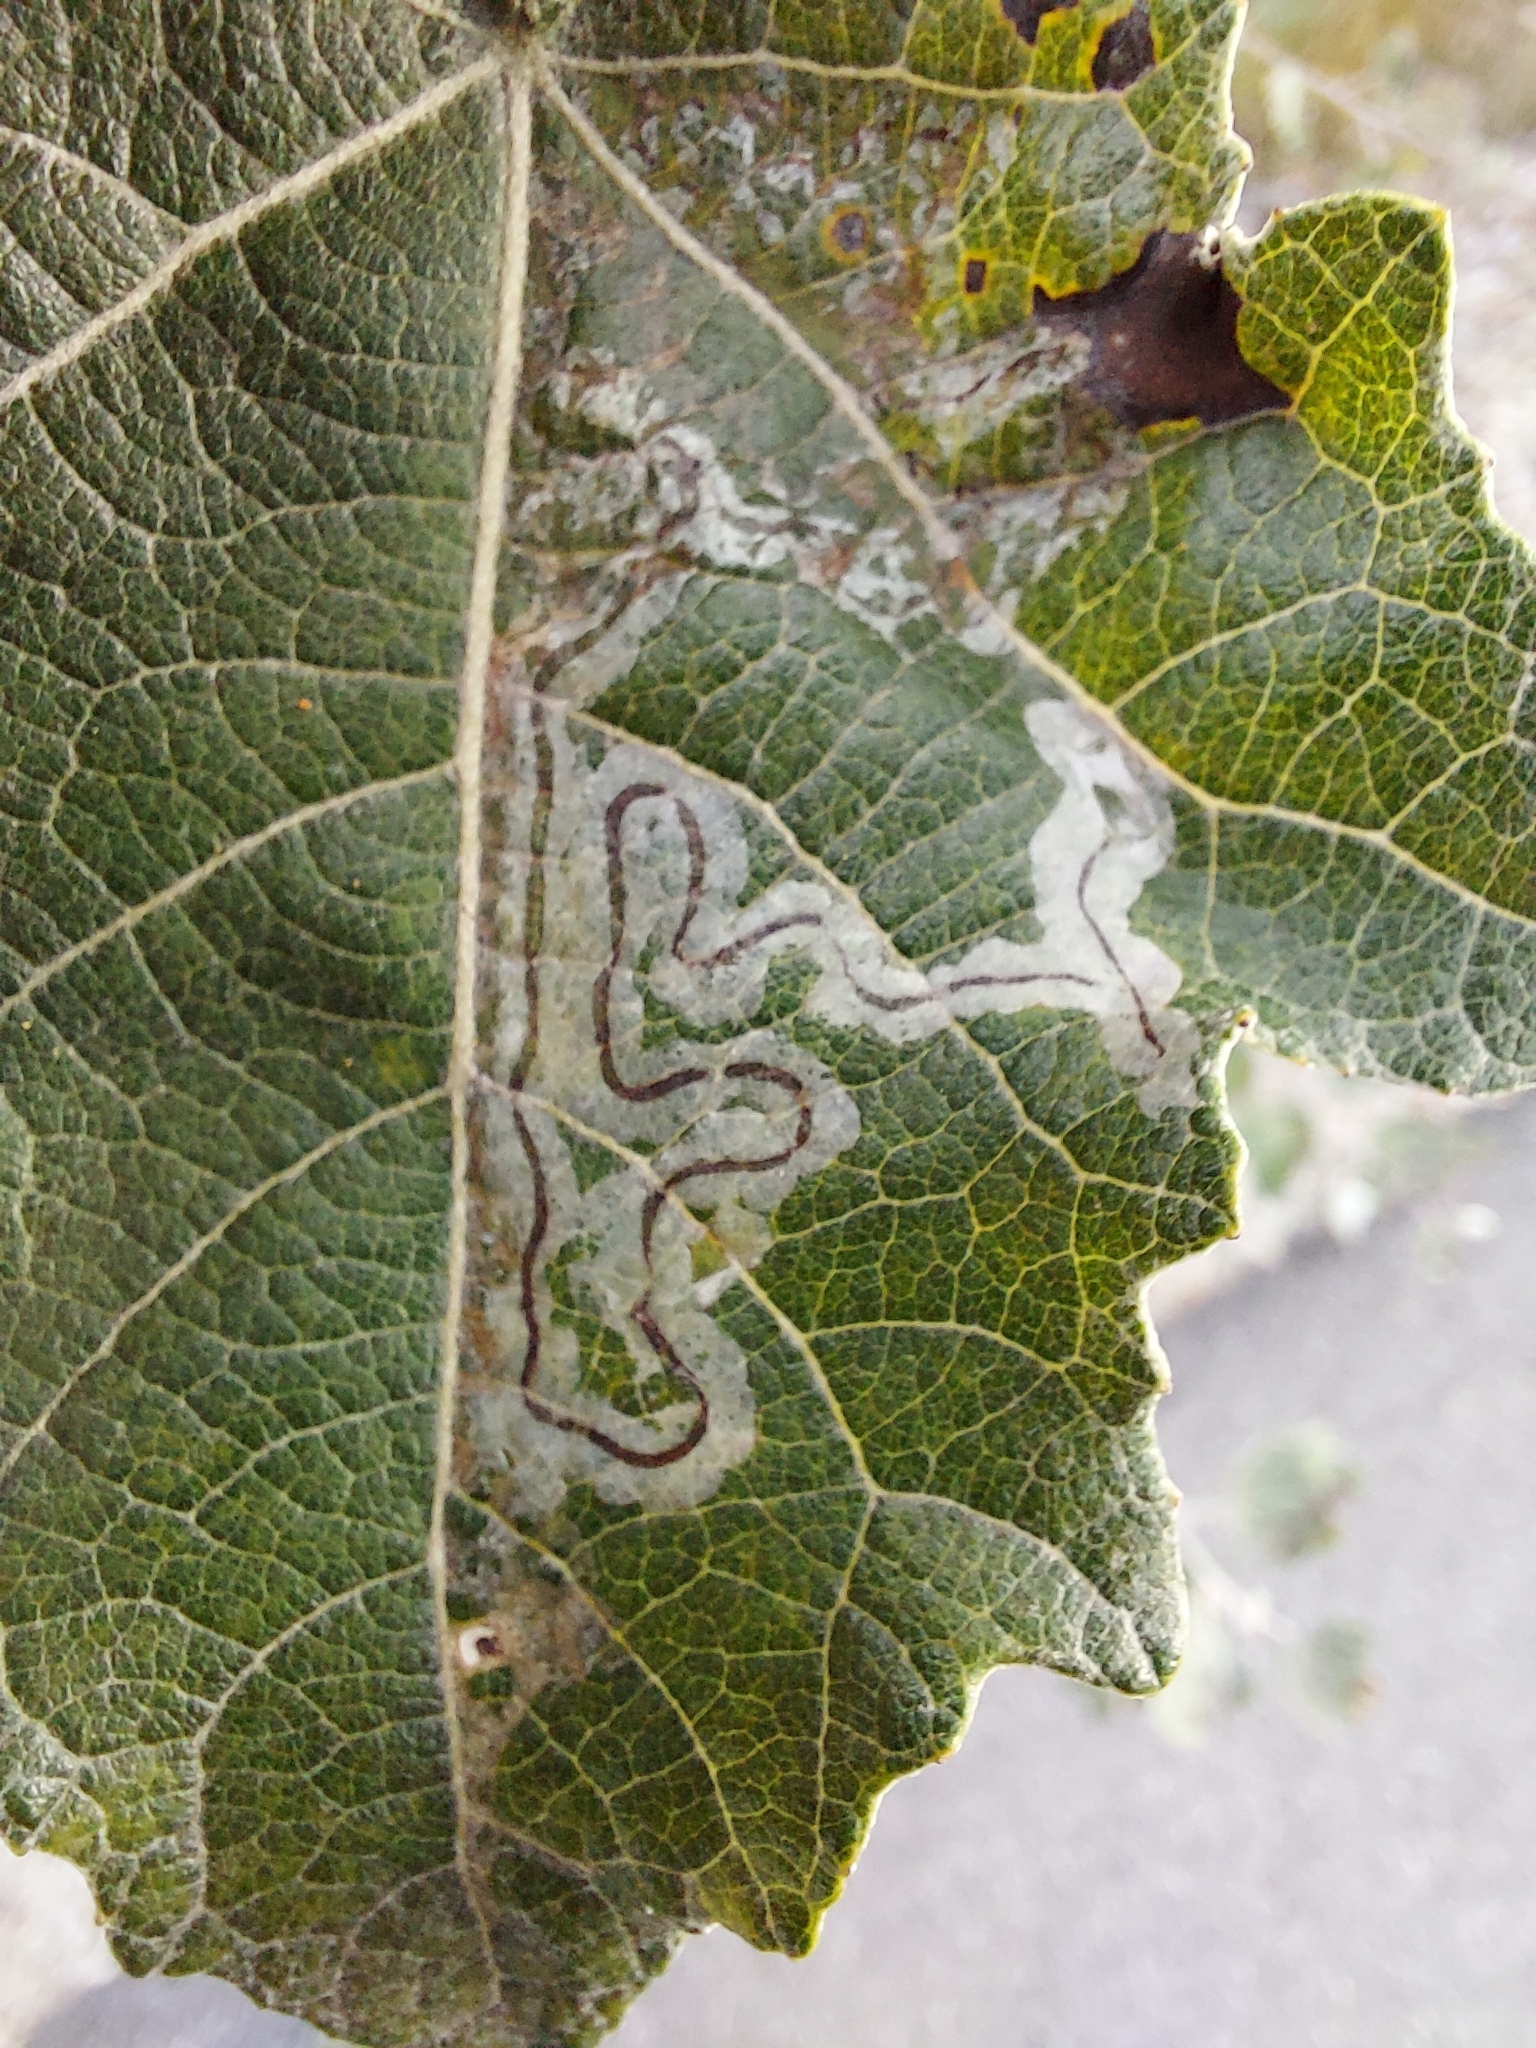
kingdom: Animalia
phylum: Arthropoda
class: Insecta
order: Lepidoptera
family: Gracillariidae
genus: Phyllocnistis
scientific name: Phyllocnistis populiella
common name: Aspen serpentine leafminer moth
